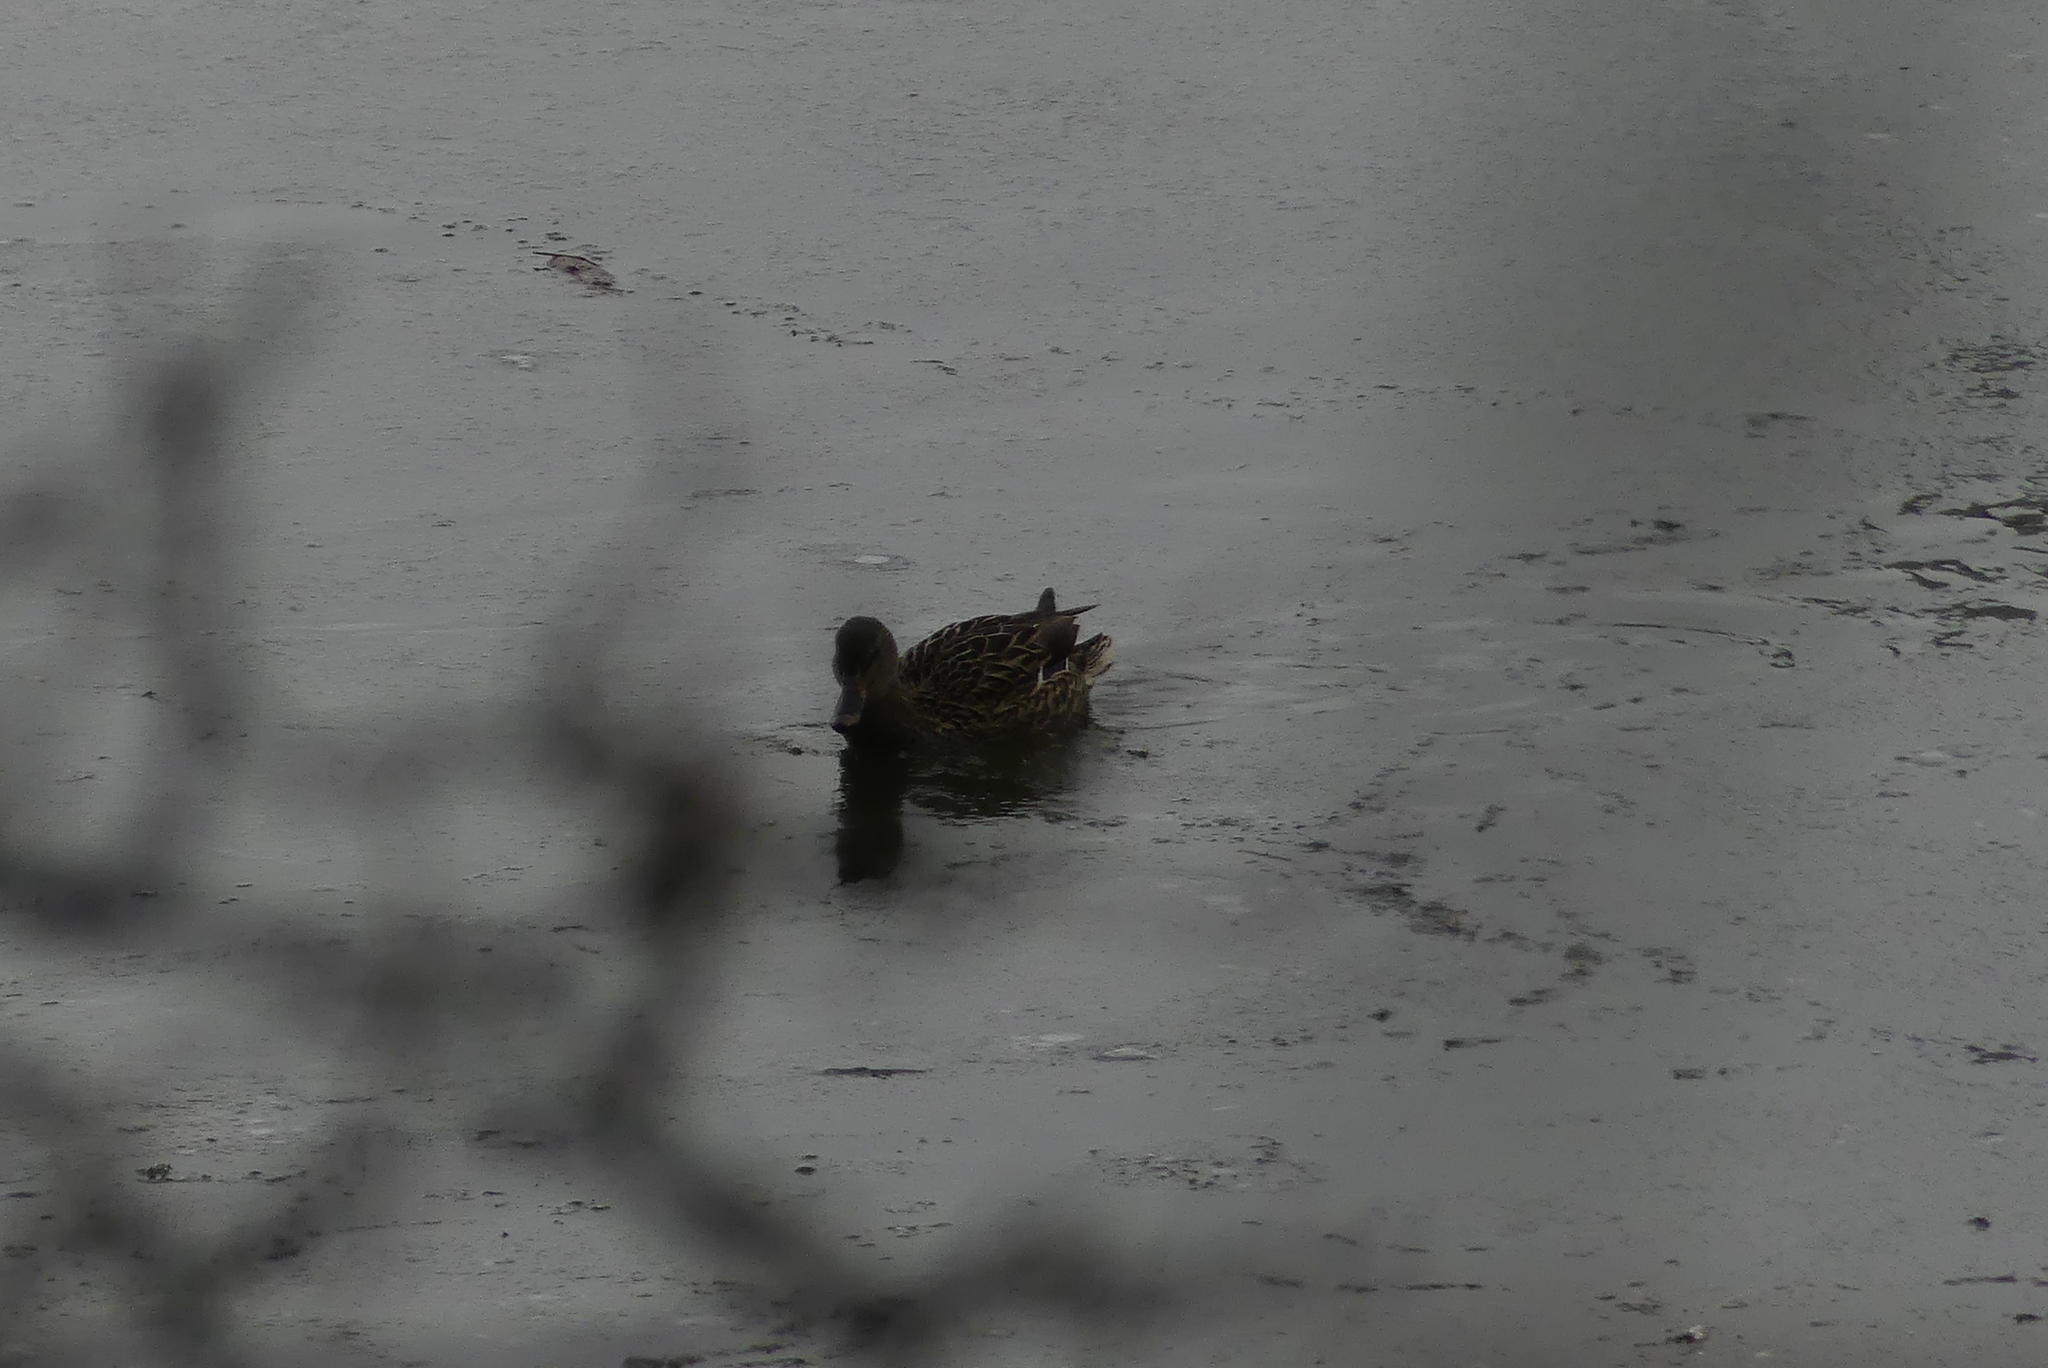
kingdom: Animalia
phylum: Chordata
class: Aves
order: Anseriformes
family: Anatidae
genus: Anas
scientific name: Anas platyrhynchos
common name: Mallard
